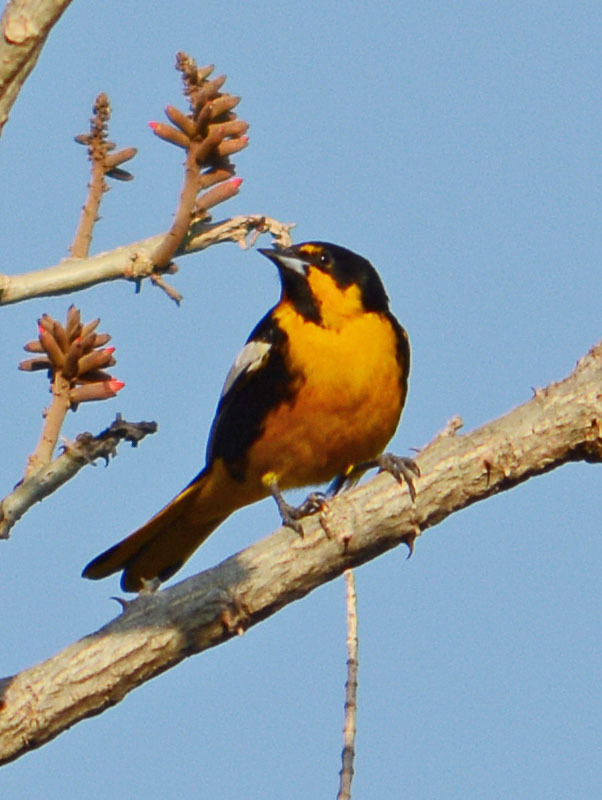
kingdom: Animalia
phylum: Chordata
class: Aves
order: Passeriformes
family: Icteridae
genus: Icterus
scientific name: Icterus abeillei
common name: Black-backed oriole
